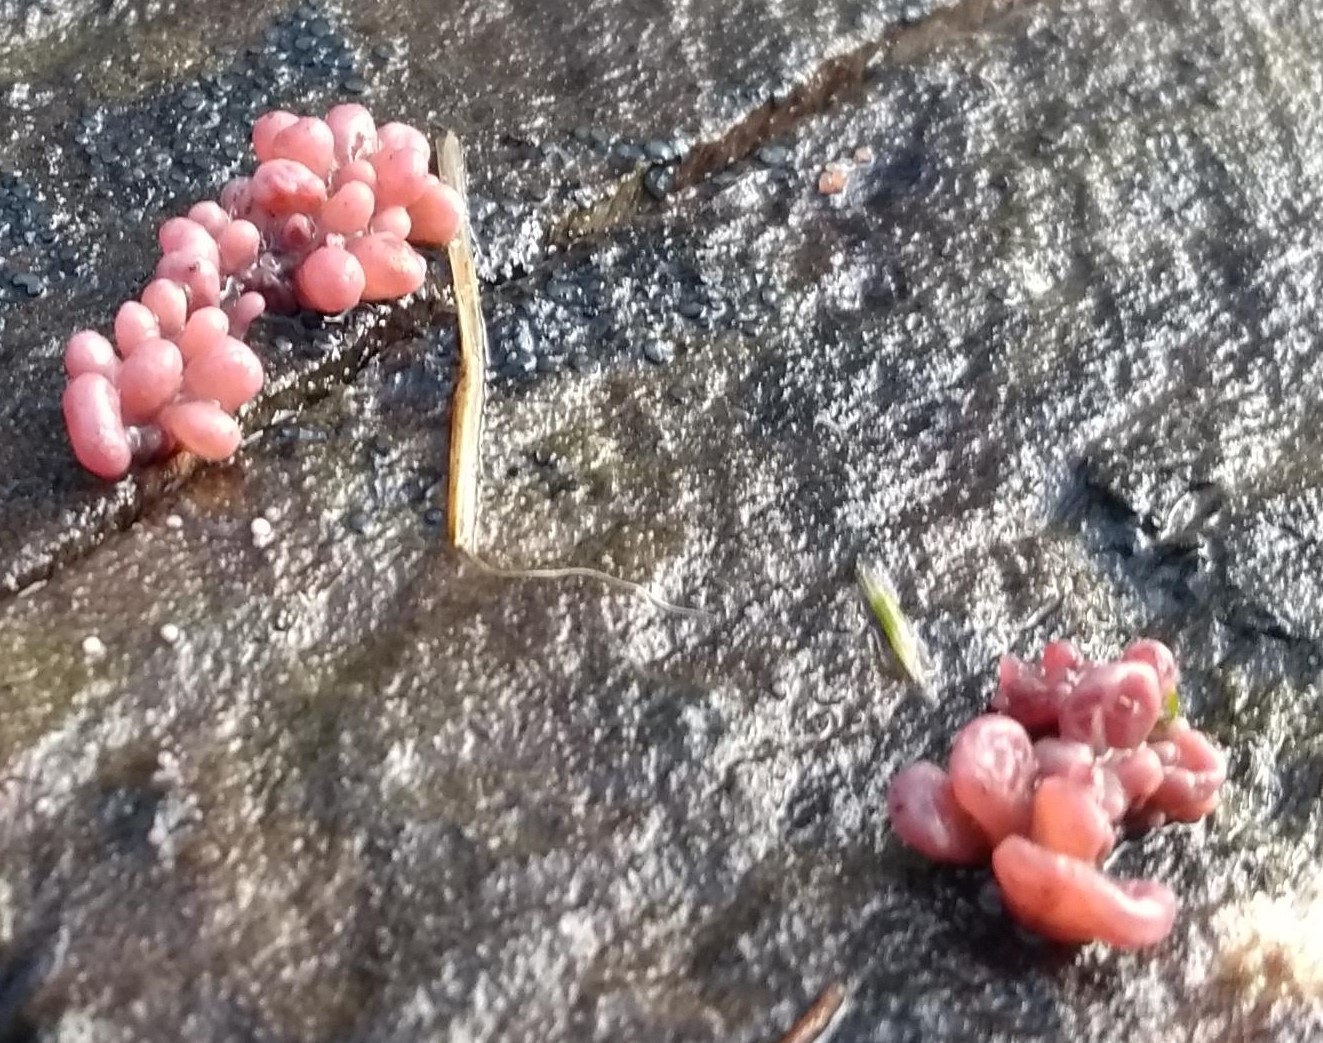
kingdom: Fungi
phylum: Ascomycota
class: Leotiomycetes
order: Helotiales
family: Gelatinodiscaceae
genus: Ascocoryne
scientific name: Ascocoryne sarcoides
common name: Purple jellydisc
